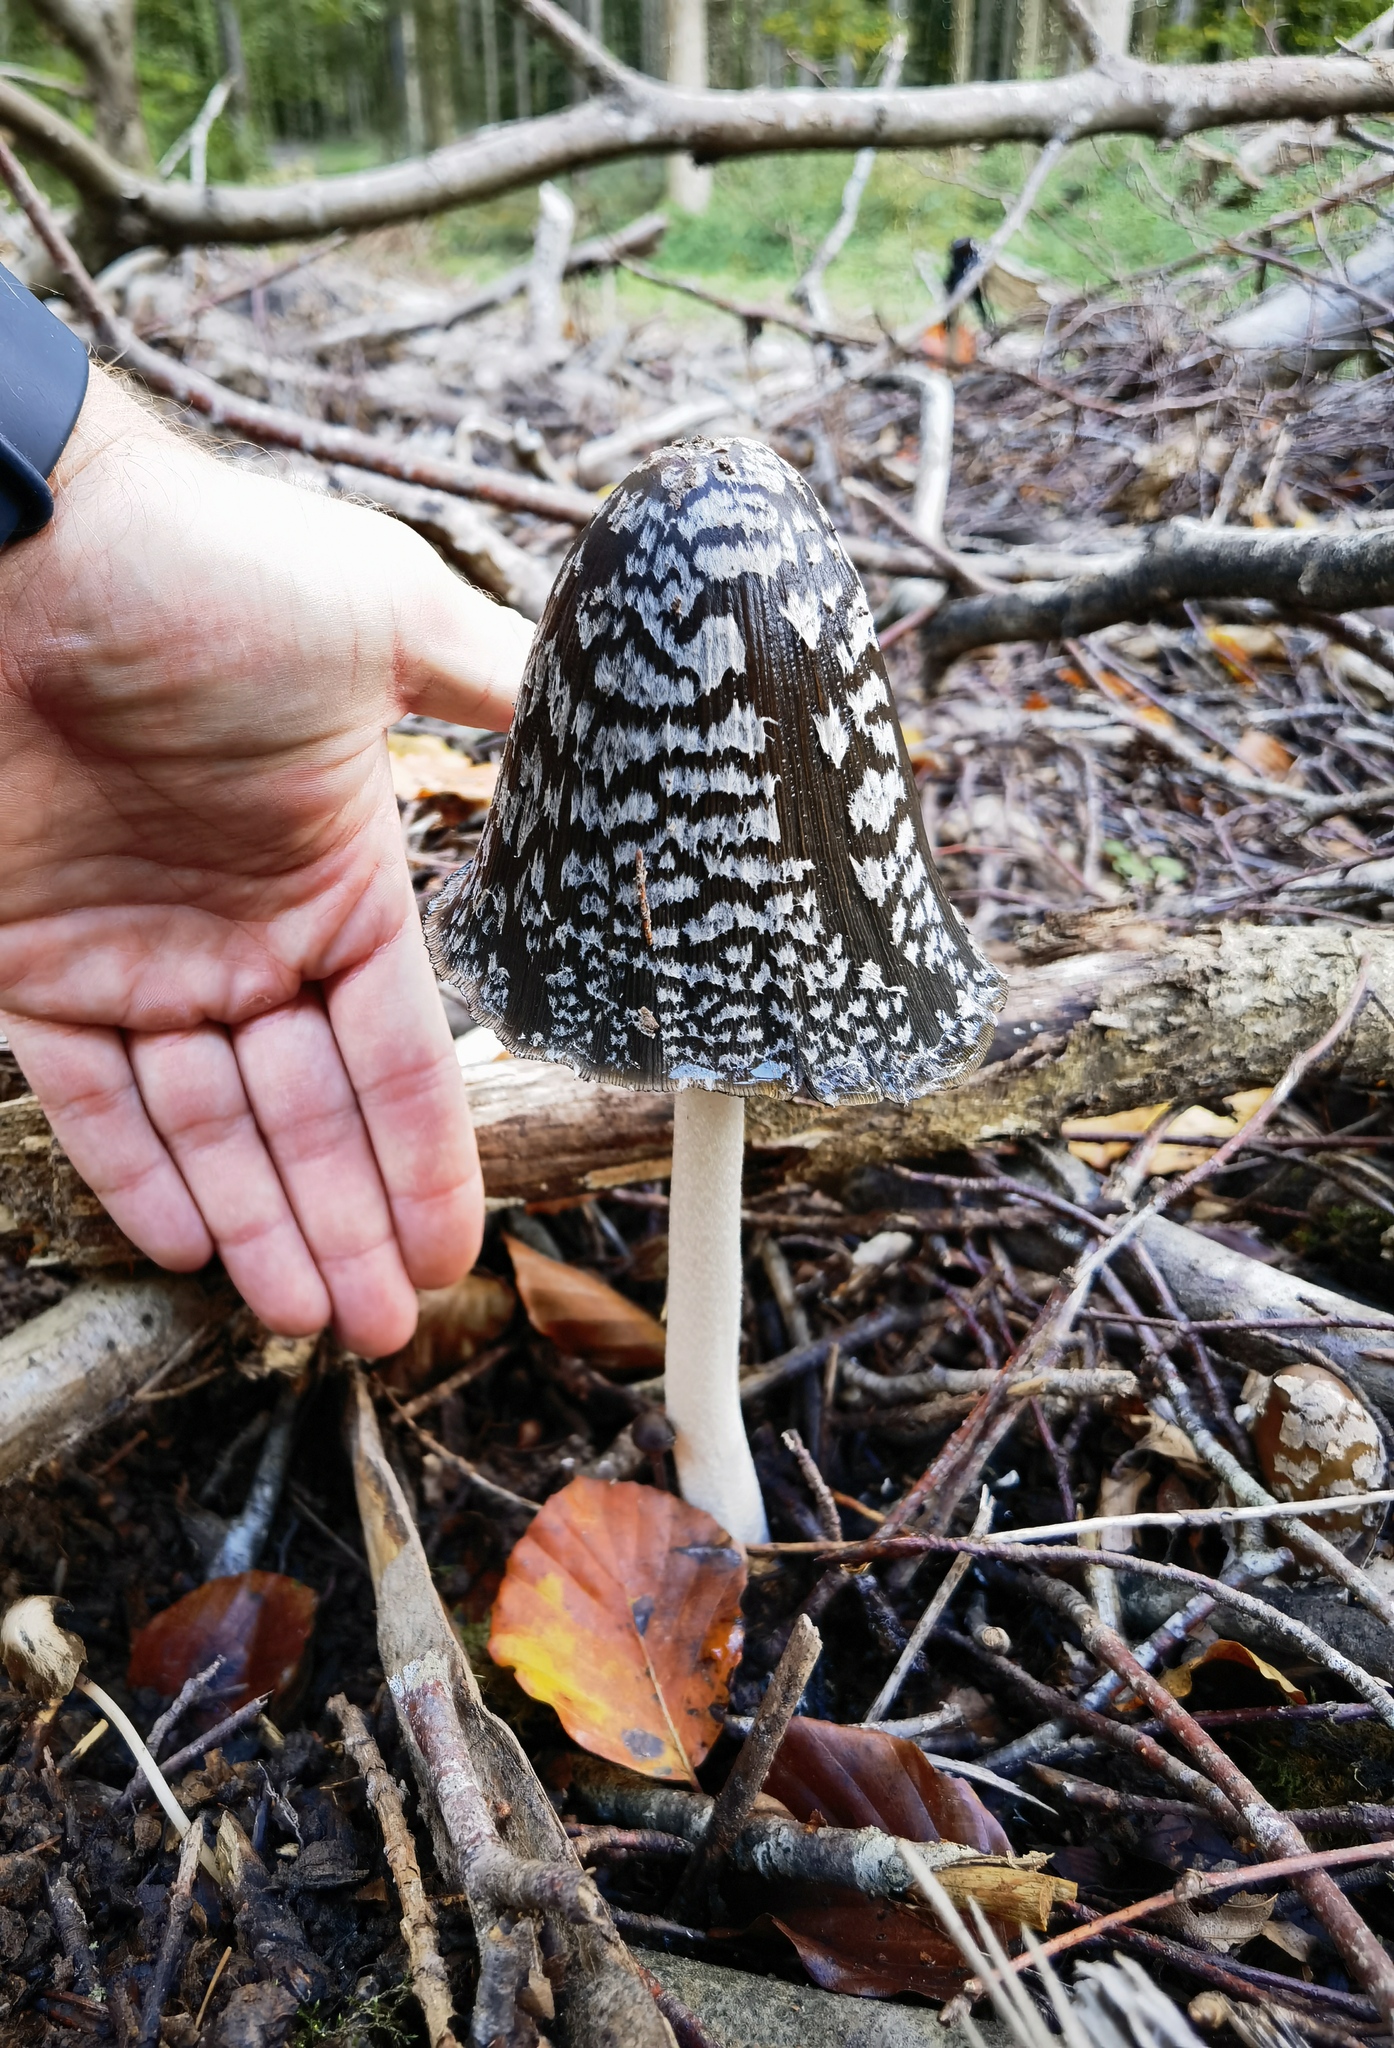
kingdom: Fungi
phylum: Basidiomycota
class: Agaricomycetes
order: Agaricales
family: Psathyrellaceae
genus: Coprinopsis
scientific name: Coprinopsis picacea
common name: Magpie inkcap
